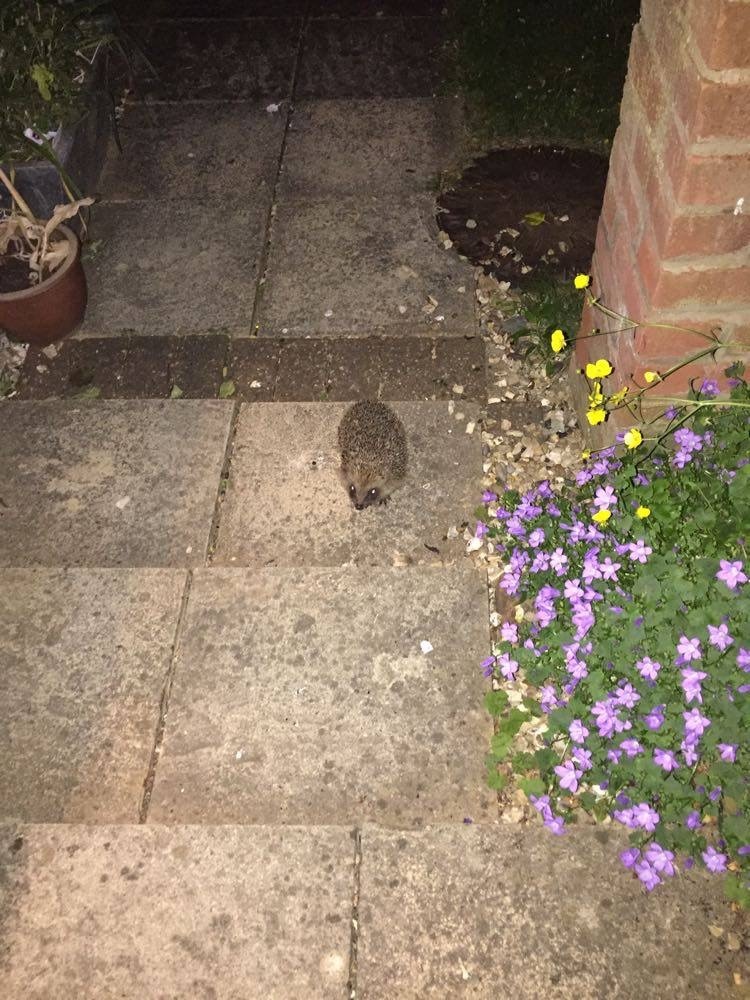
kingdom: Animalia
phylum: Chordata
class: Mammalia
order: Erinaceomorpha
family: Erinaceidae
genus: Erinaceus
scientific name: Erinaceus europaeus
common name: West european hedgehog
